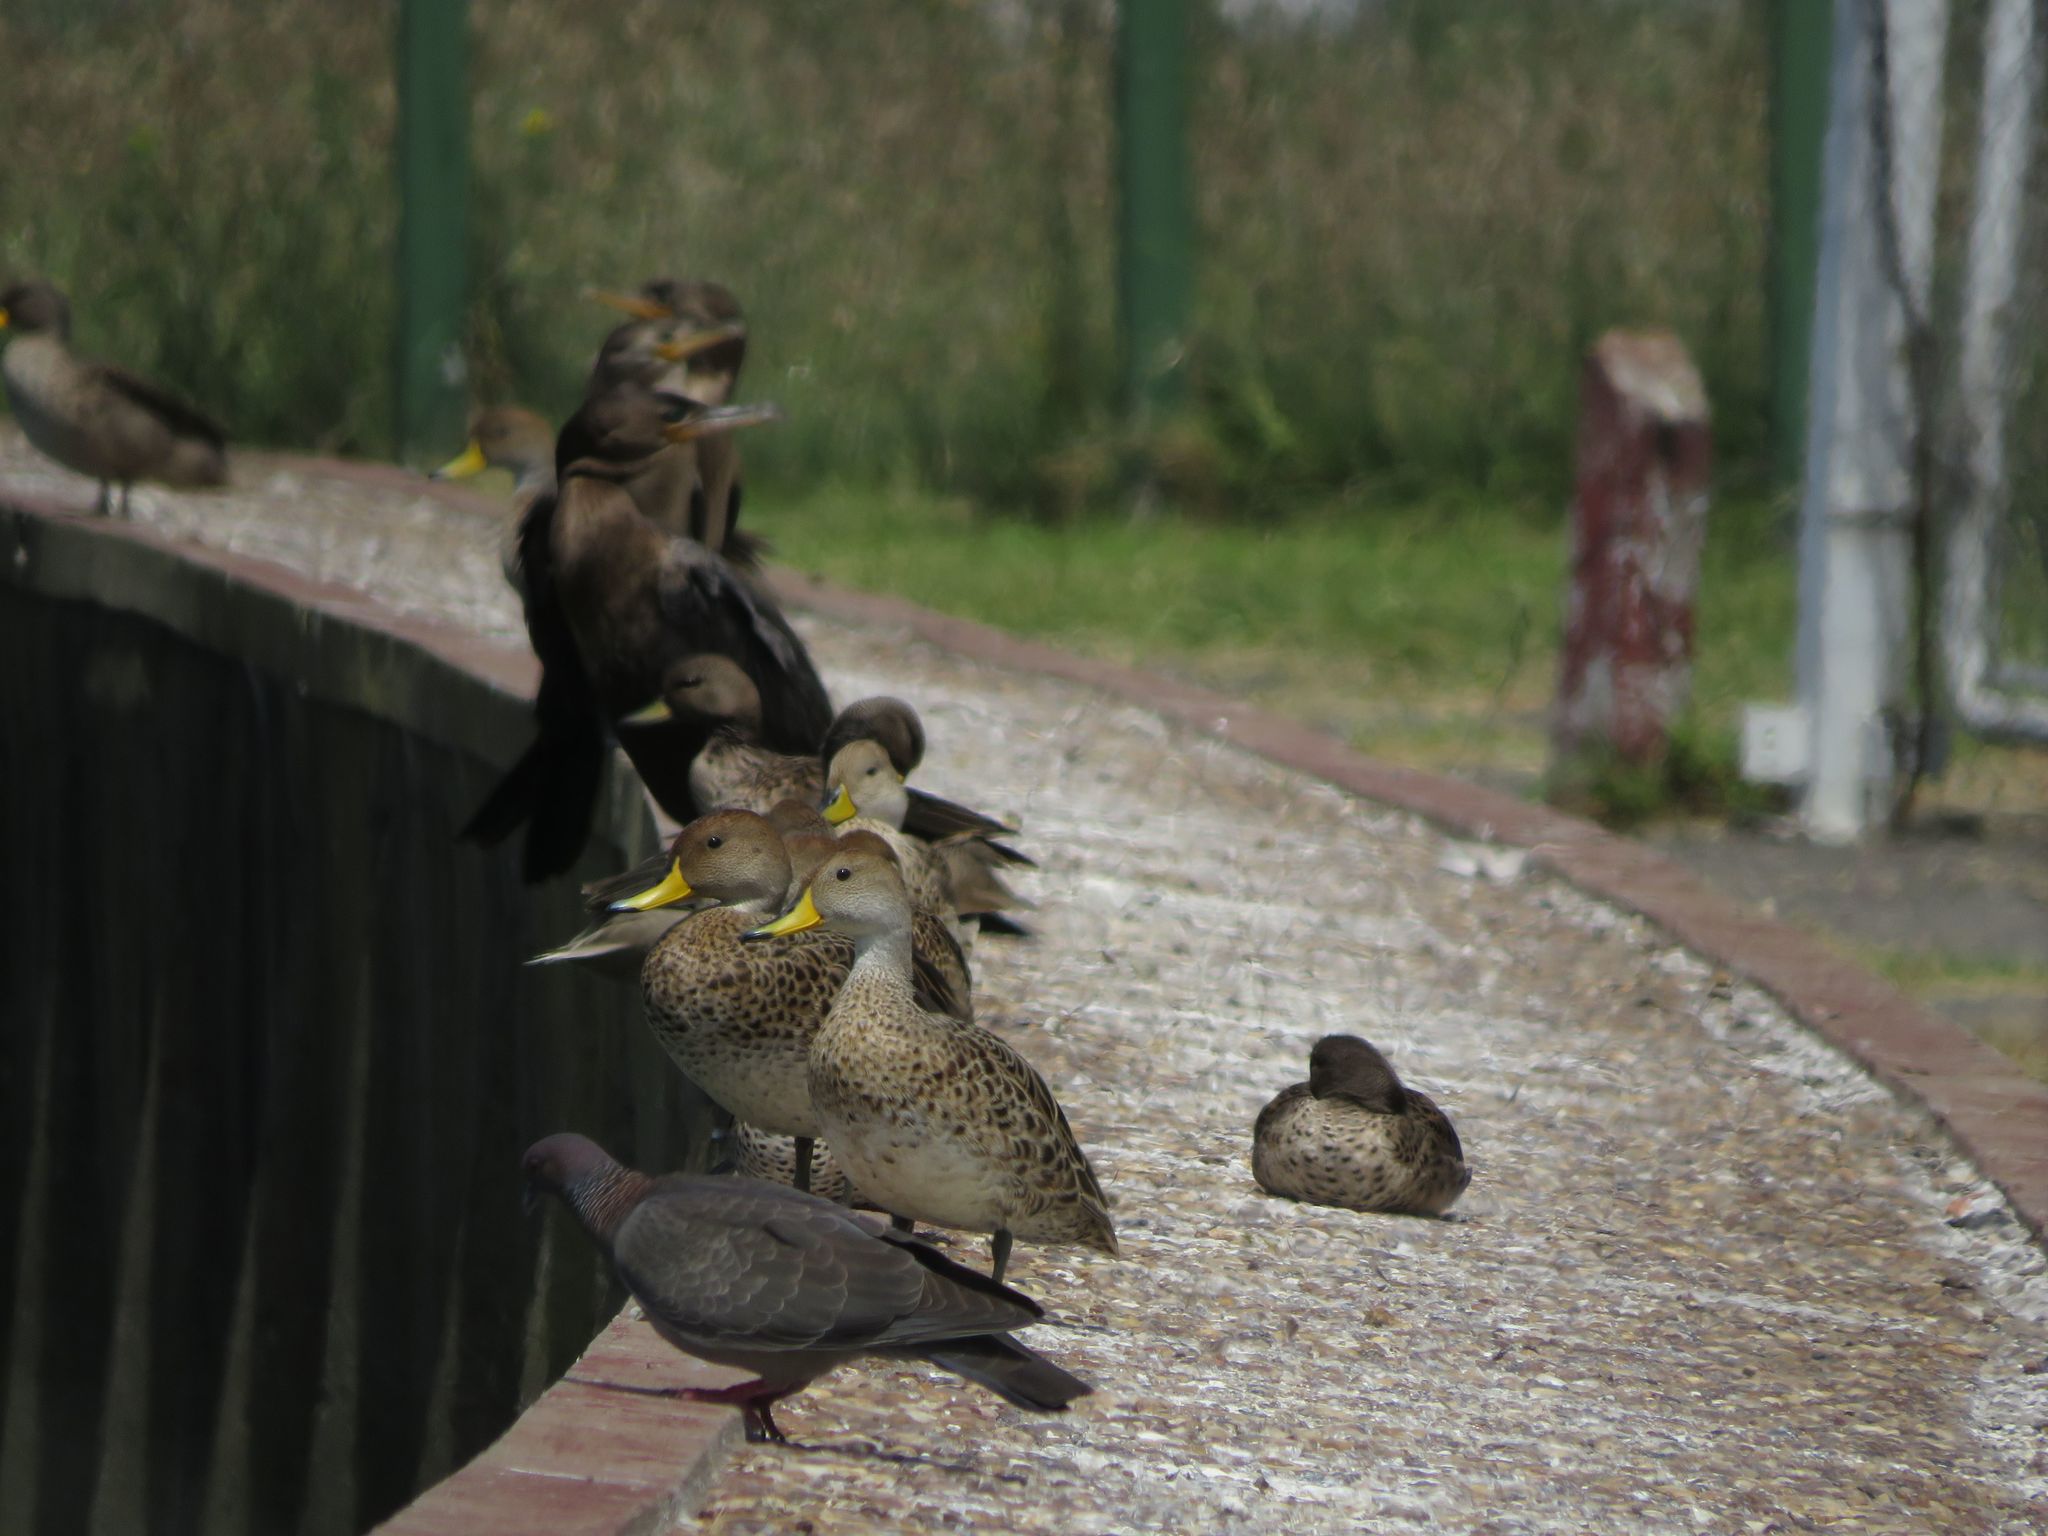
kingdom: Animalia
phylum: Chordata
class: Aves
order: Anseriformes
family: Anatidae
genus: Anas
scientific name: Anas georgica
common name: Yellow-billed pintail
